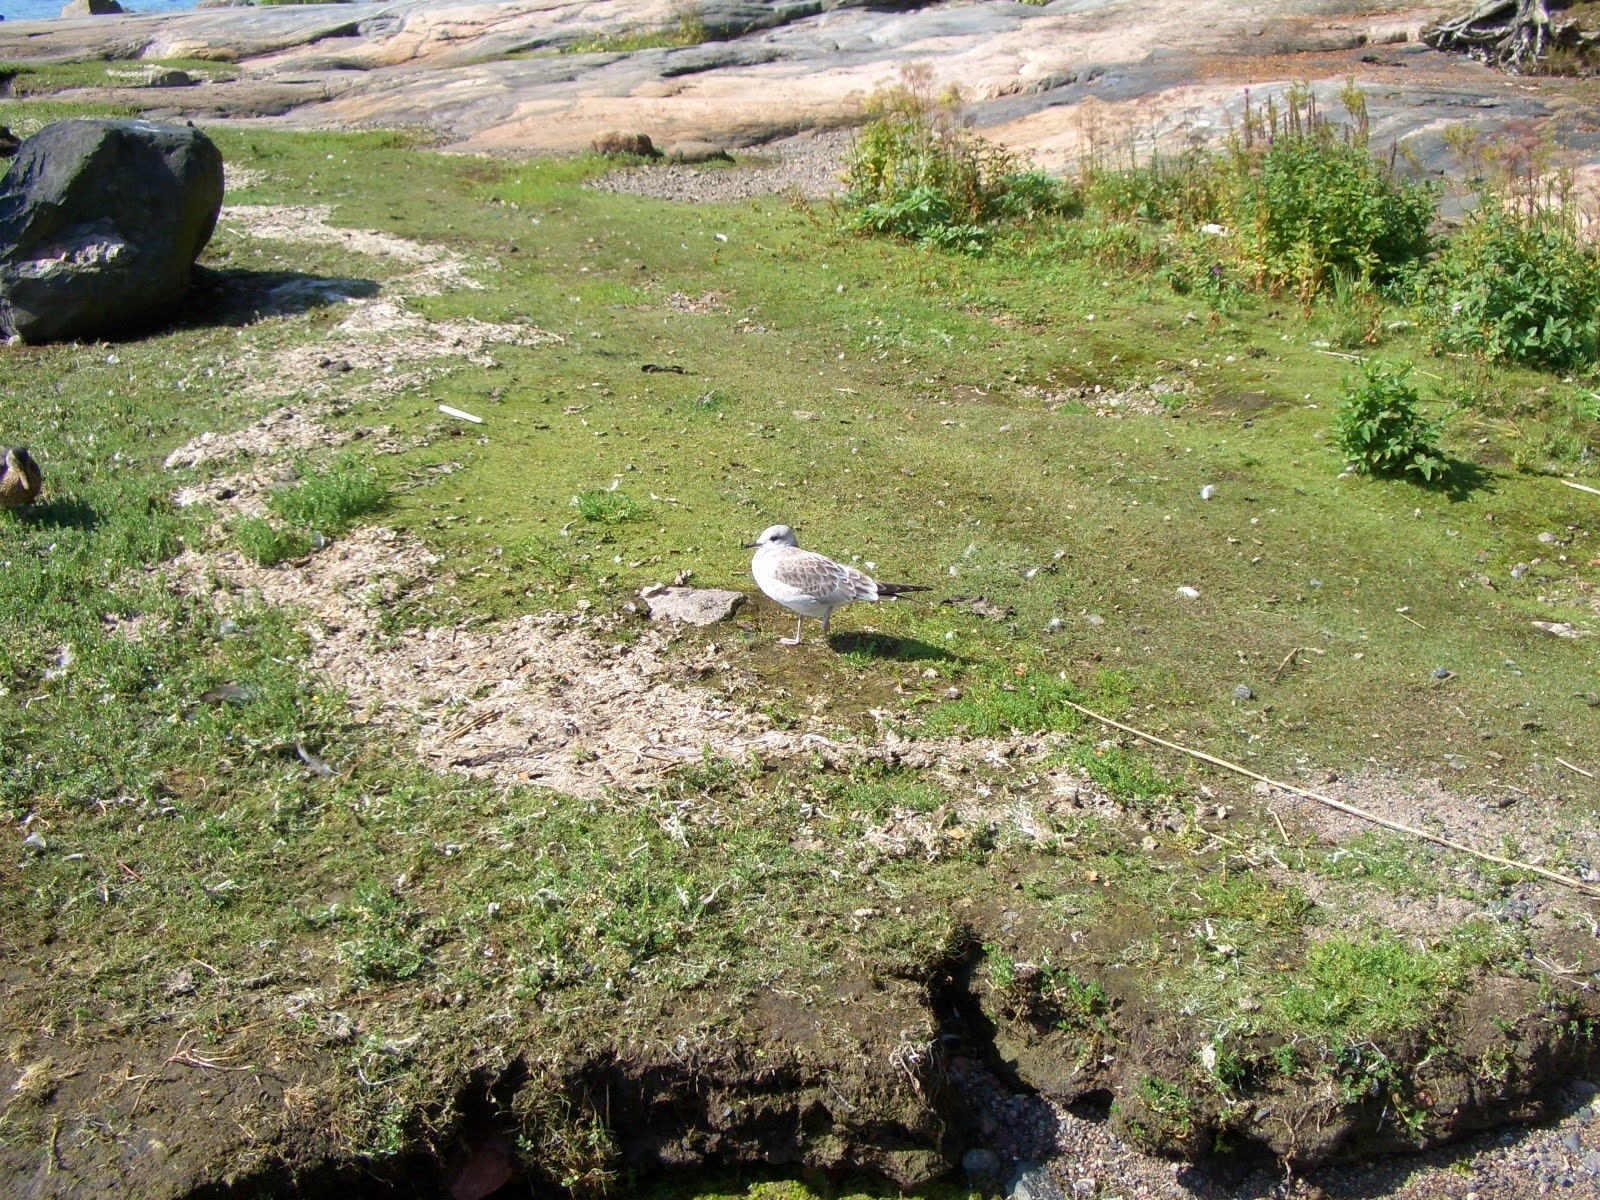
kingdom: Animalia
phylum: Chordata
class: Aves
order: Charadriiformes
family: Laridae
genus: Larus
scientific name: Larus canus
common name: Mew gull
